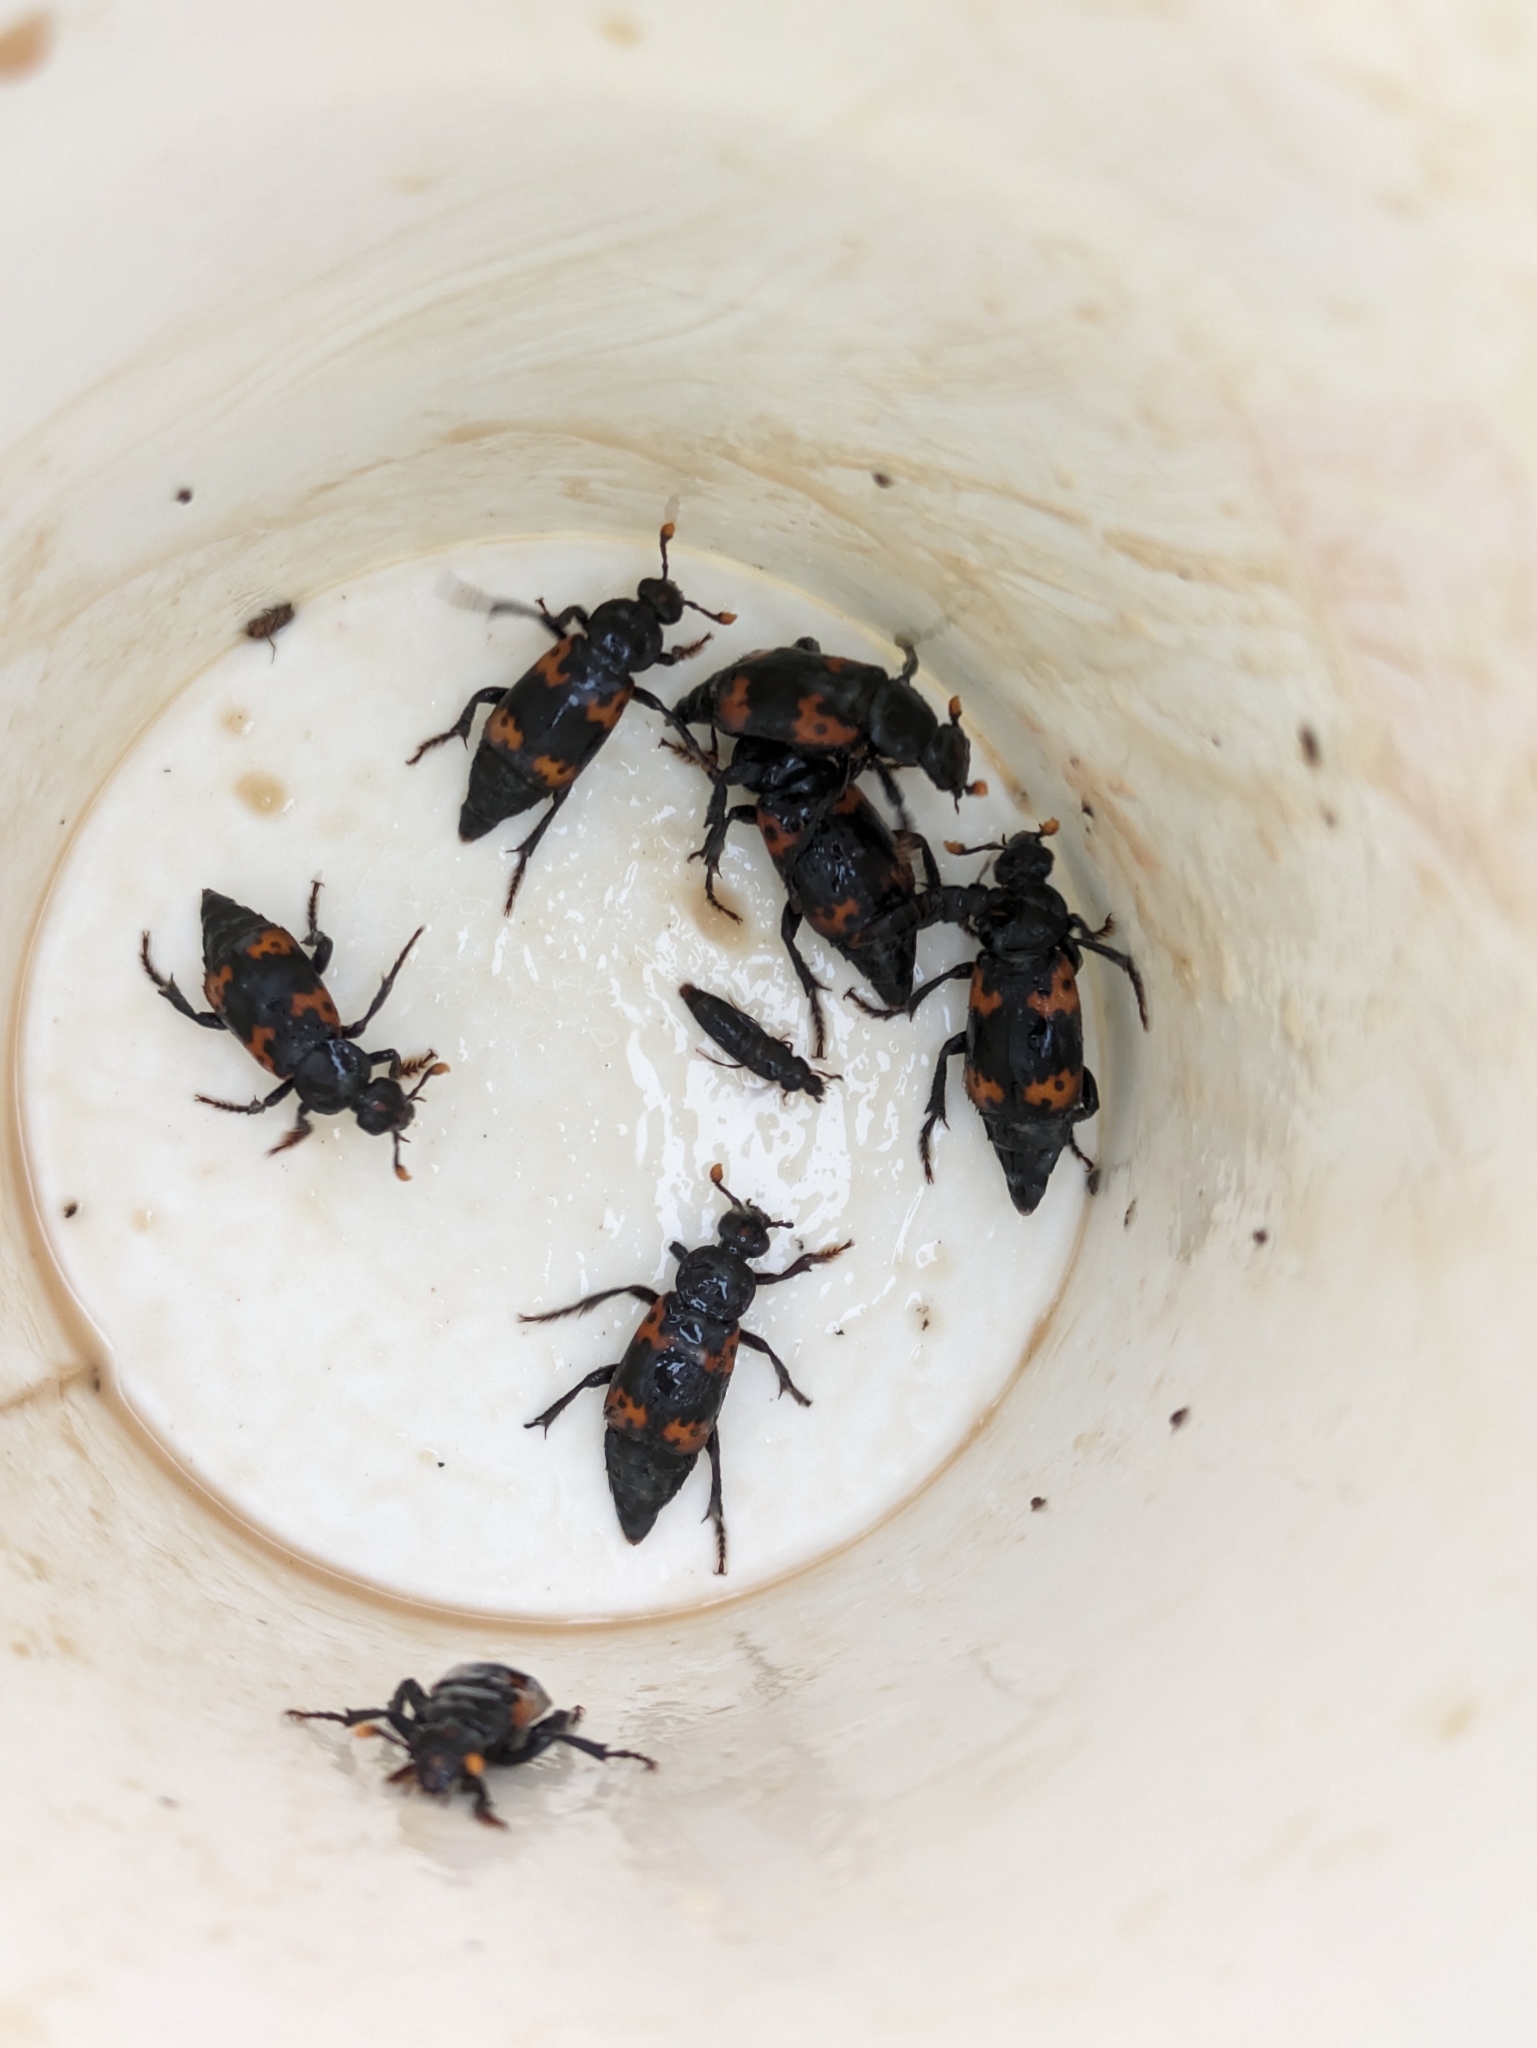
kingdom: Animalia
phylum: Arthropoda
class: Insecta
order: Coleoptera
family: Staphylinidae
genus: Nicrophorus
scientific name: Nicrophorus nepalensis
